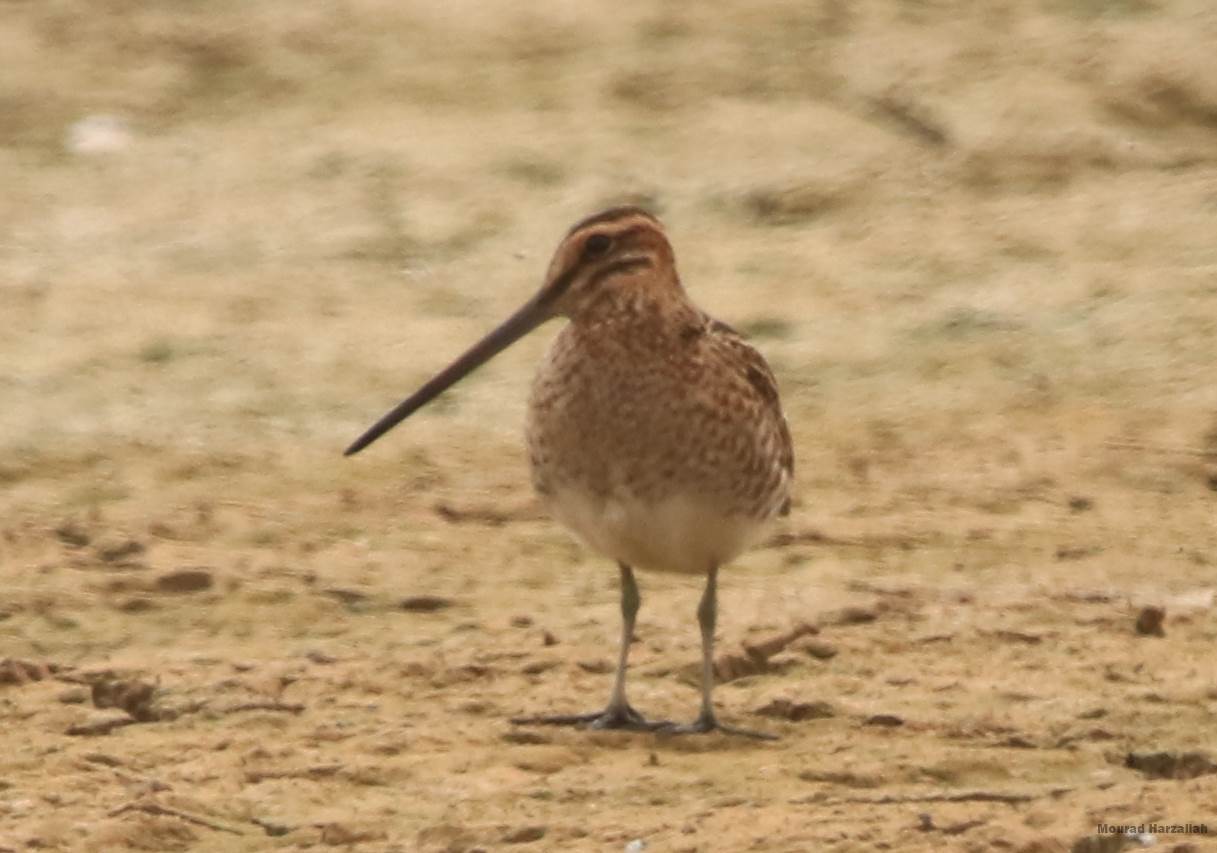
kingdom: Animalia
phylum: Chordata
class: Aves
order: Charadriiformes
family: Scolopacidae
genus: Gallinago
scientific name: Gallinago gallinago
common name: Common snipe
